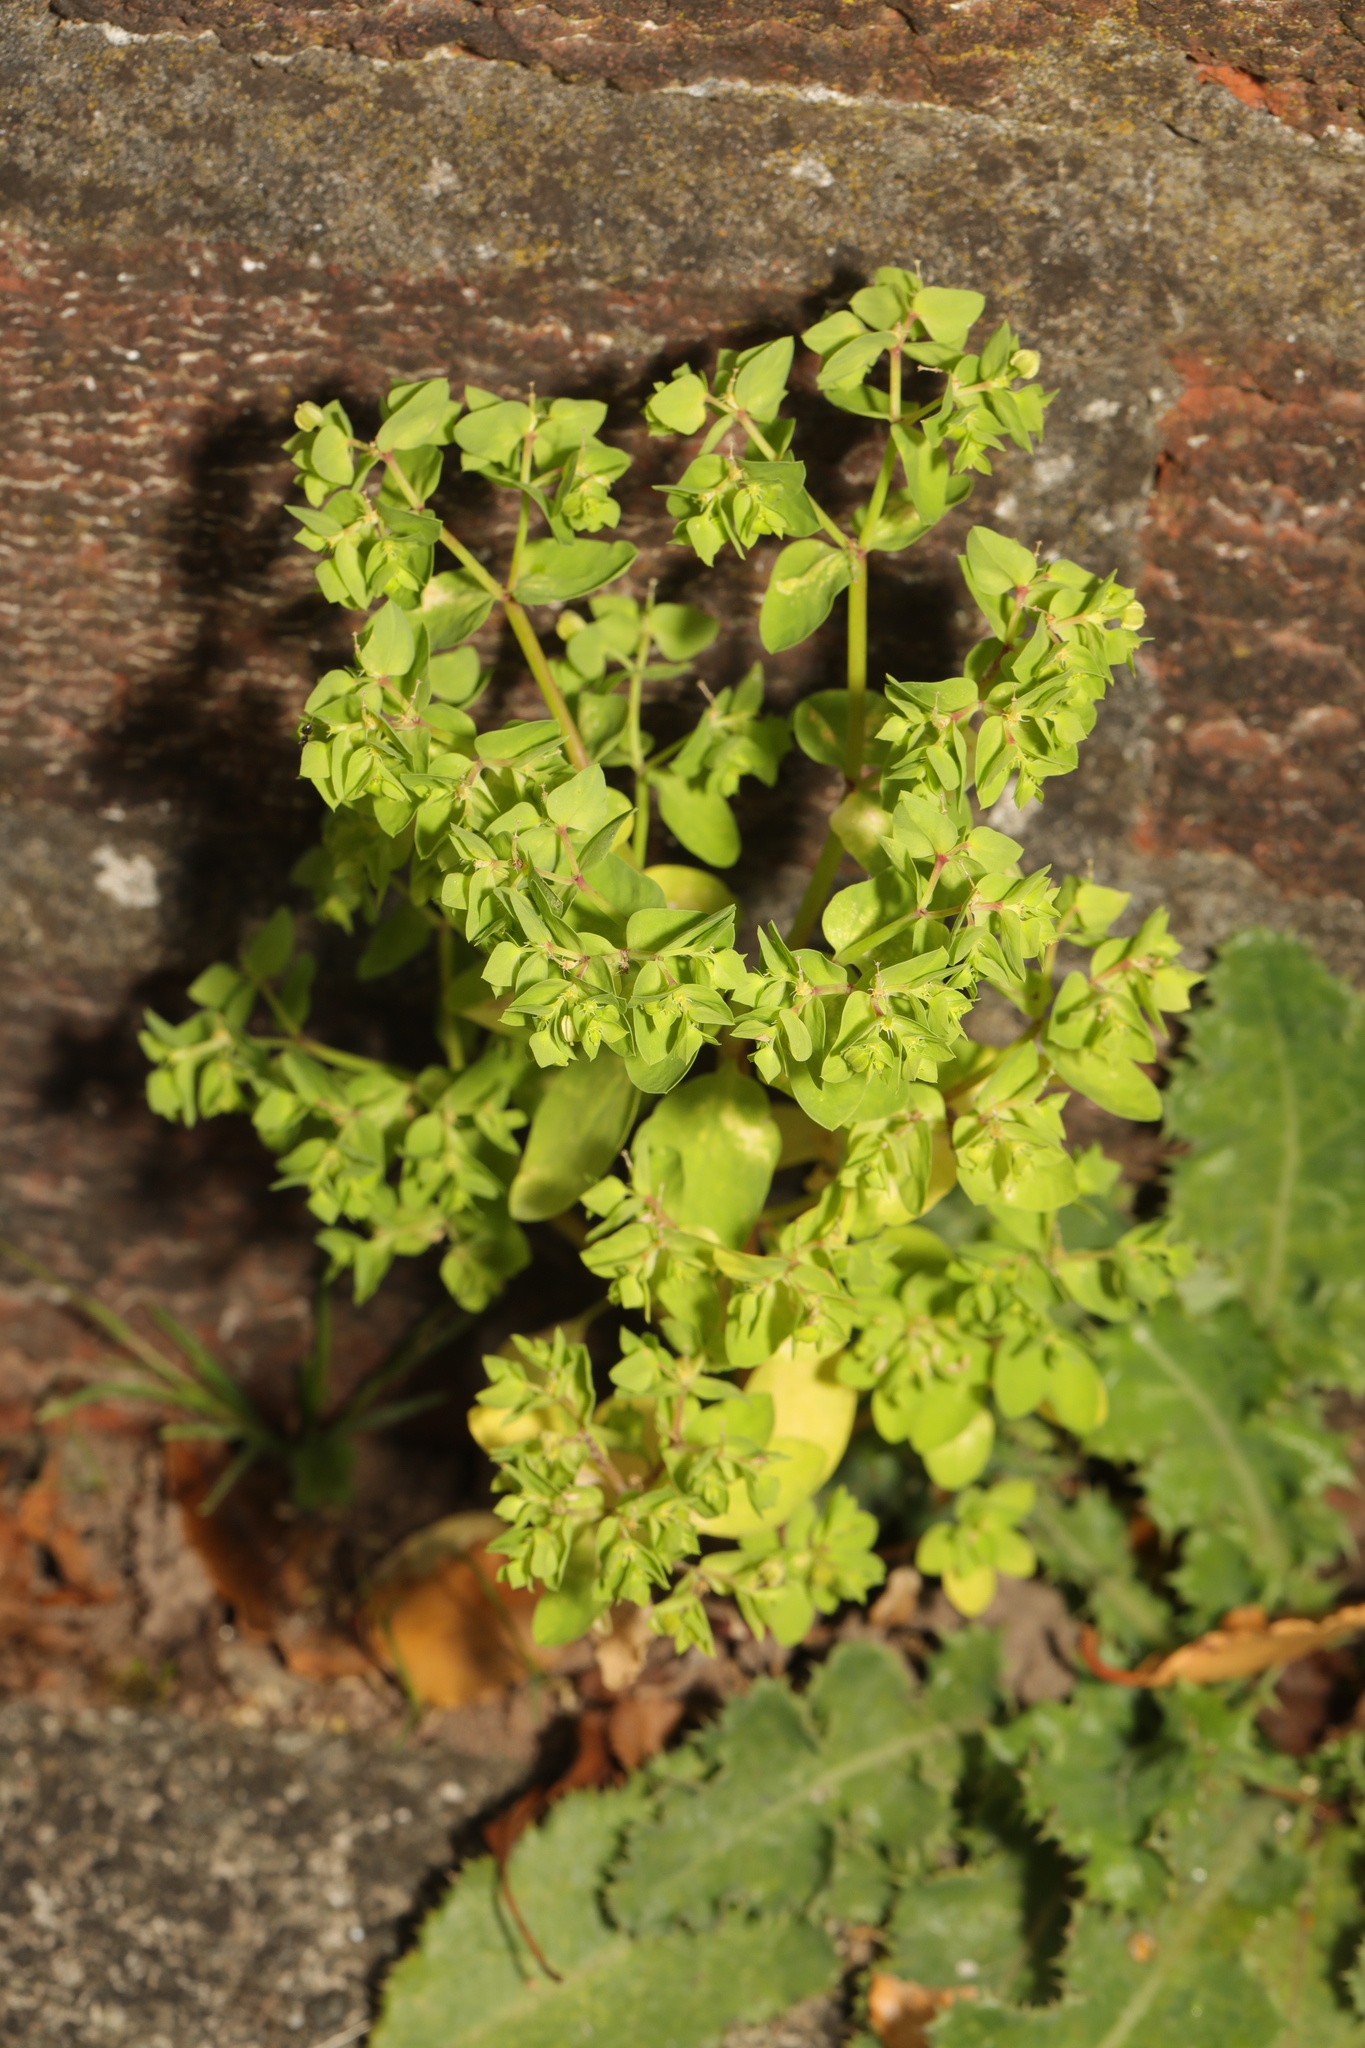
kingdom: Plantae
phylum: Tracheophyta
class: Magnoliopsida
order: Malpighiales
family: Euphorbiaceae
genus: Euphorbia
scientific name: Euphorbia peplus
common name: Petty spurge
